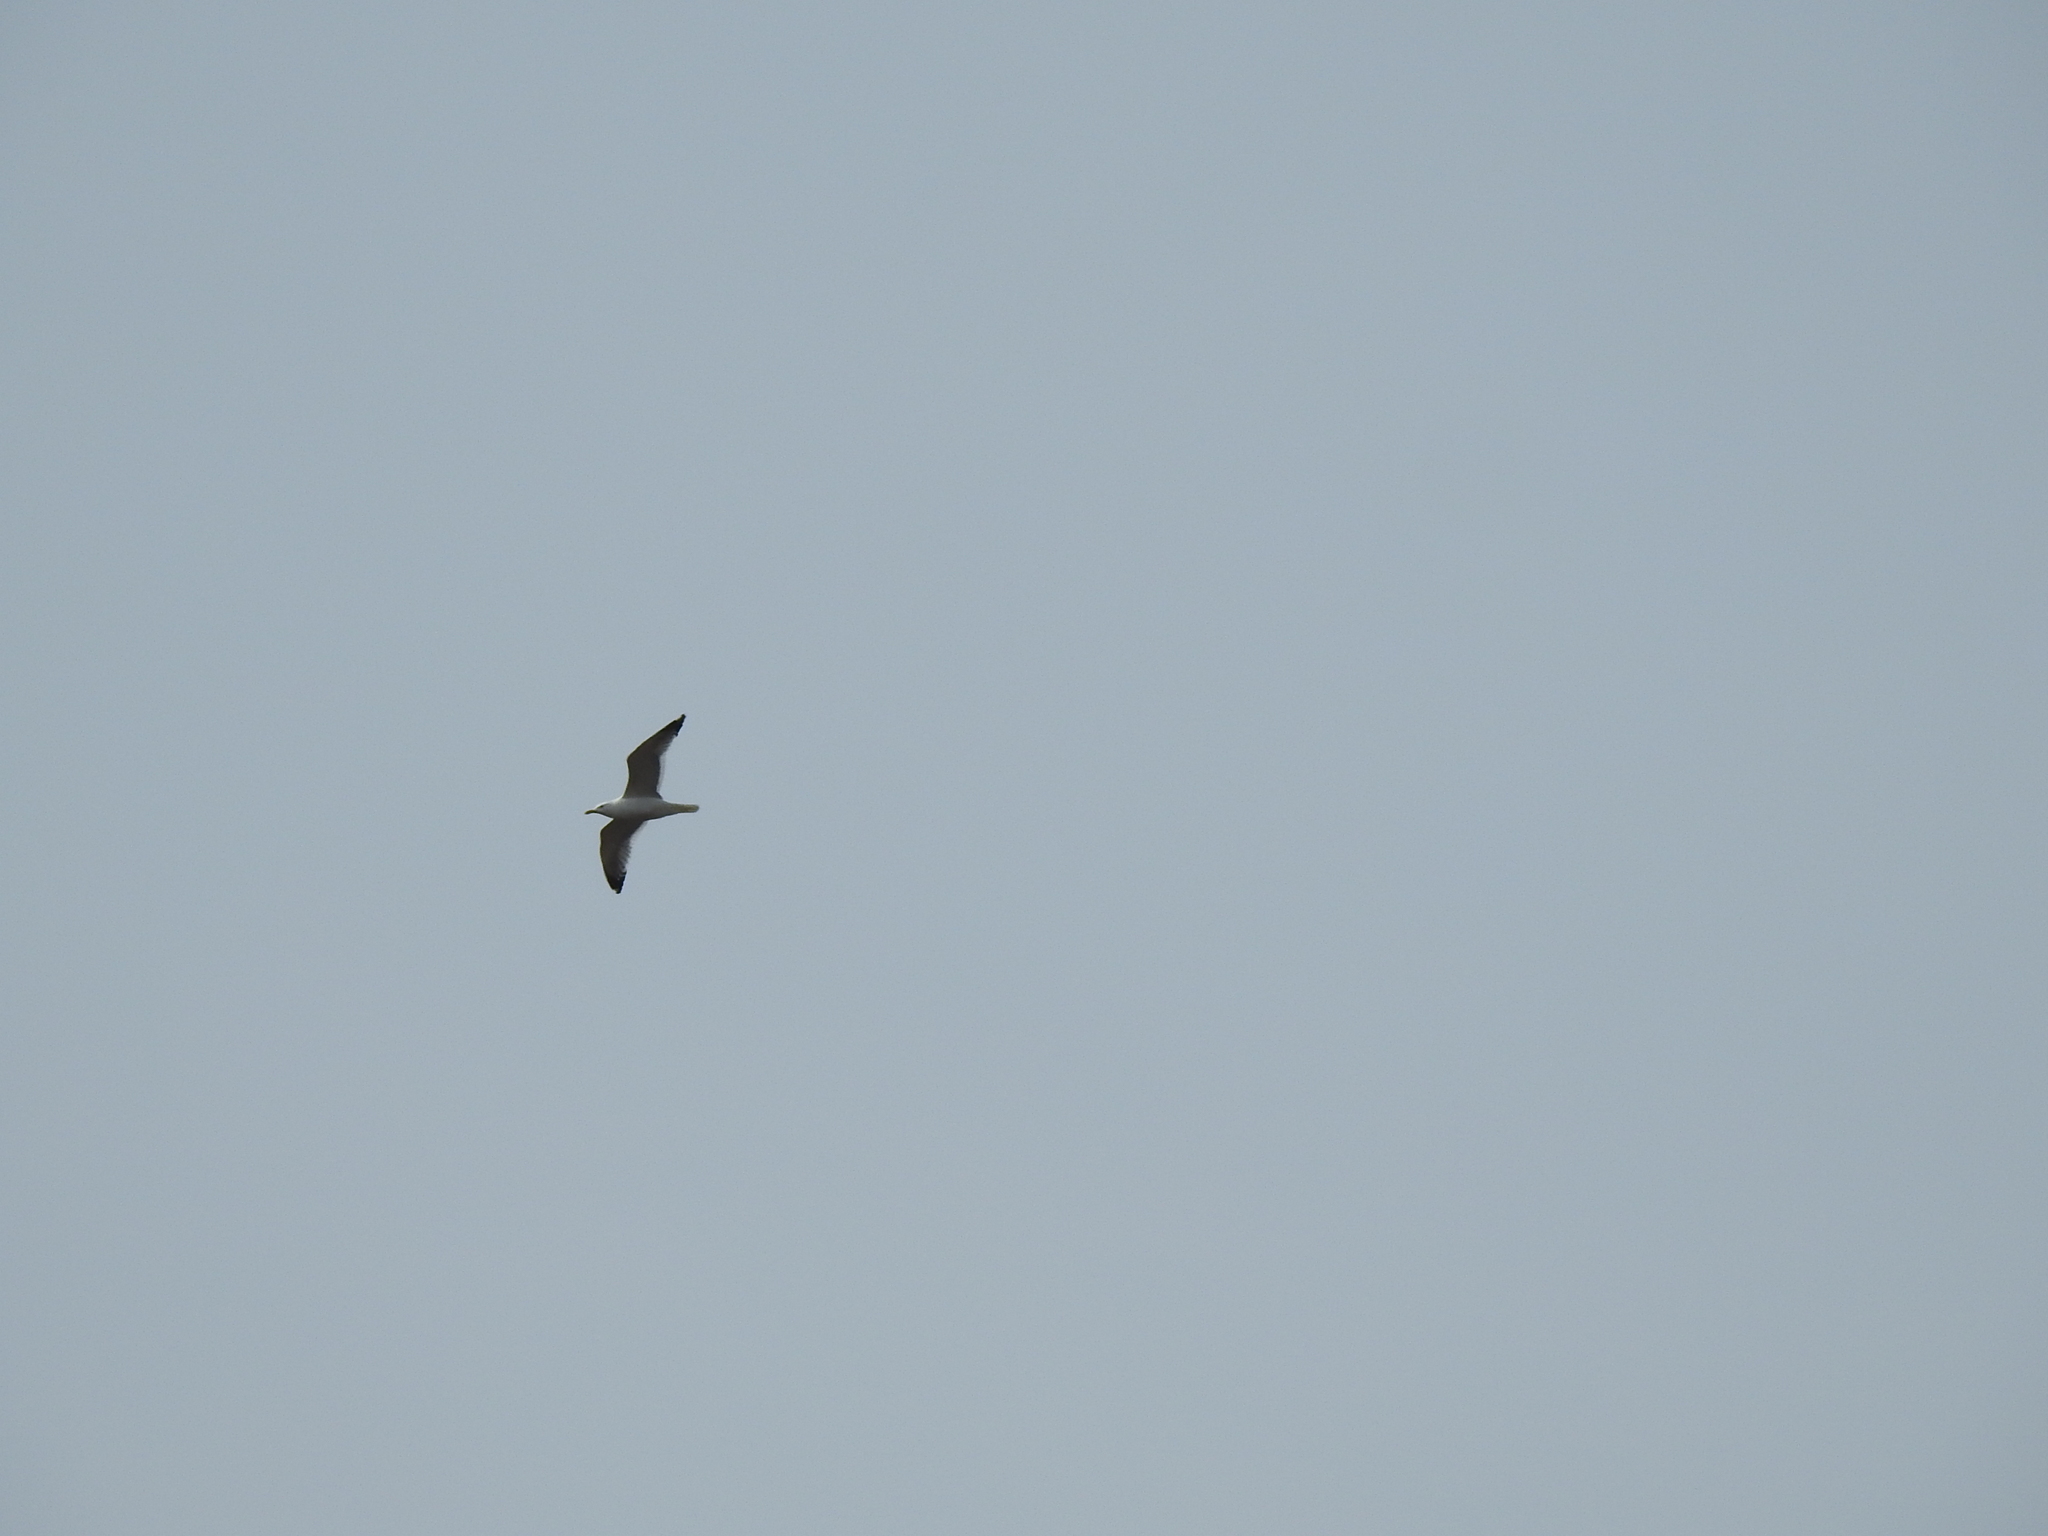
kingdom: Animalia
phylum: Chordata
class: Aves
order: Charadriiformes
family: Laridae
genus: Larus
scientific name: Larus fuscus
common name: Lesser black-backed gull
